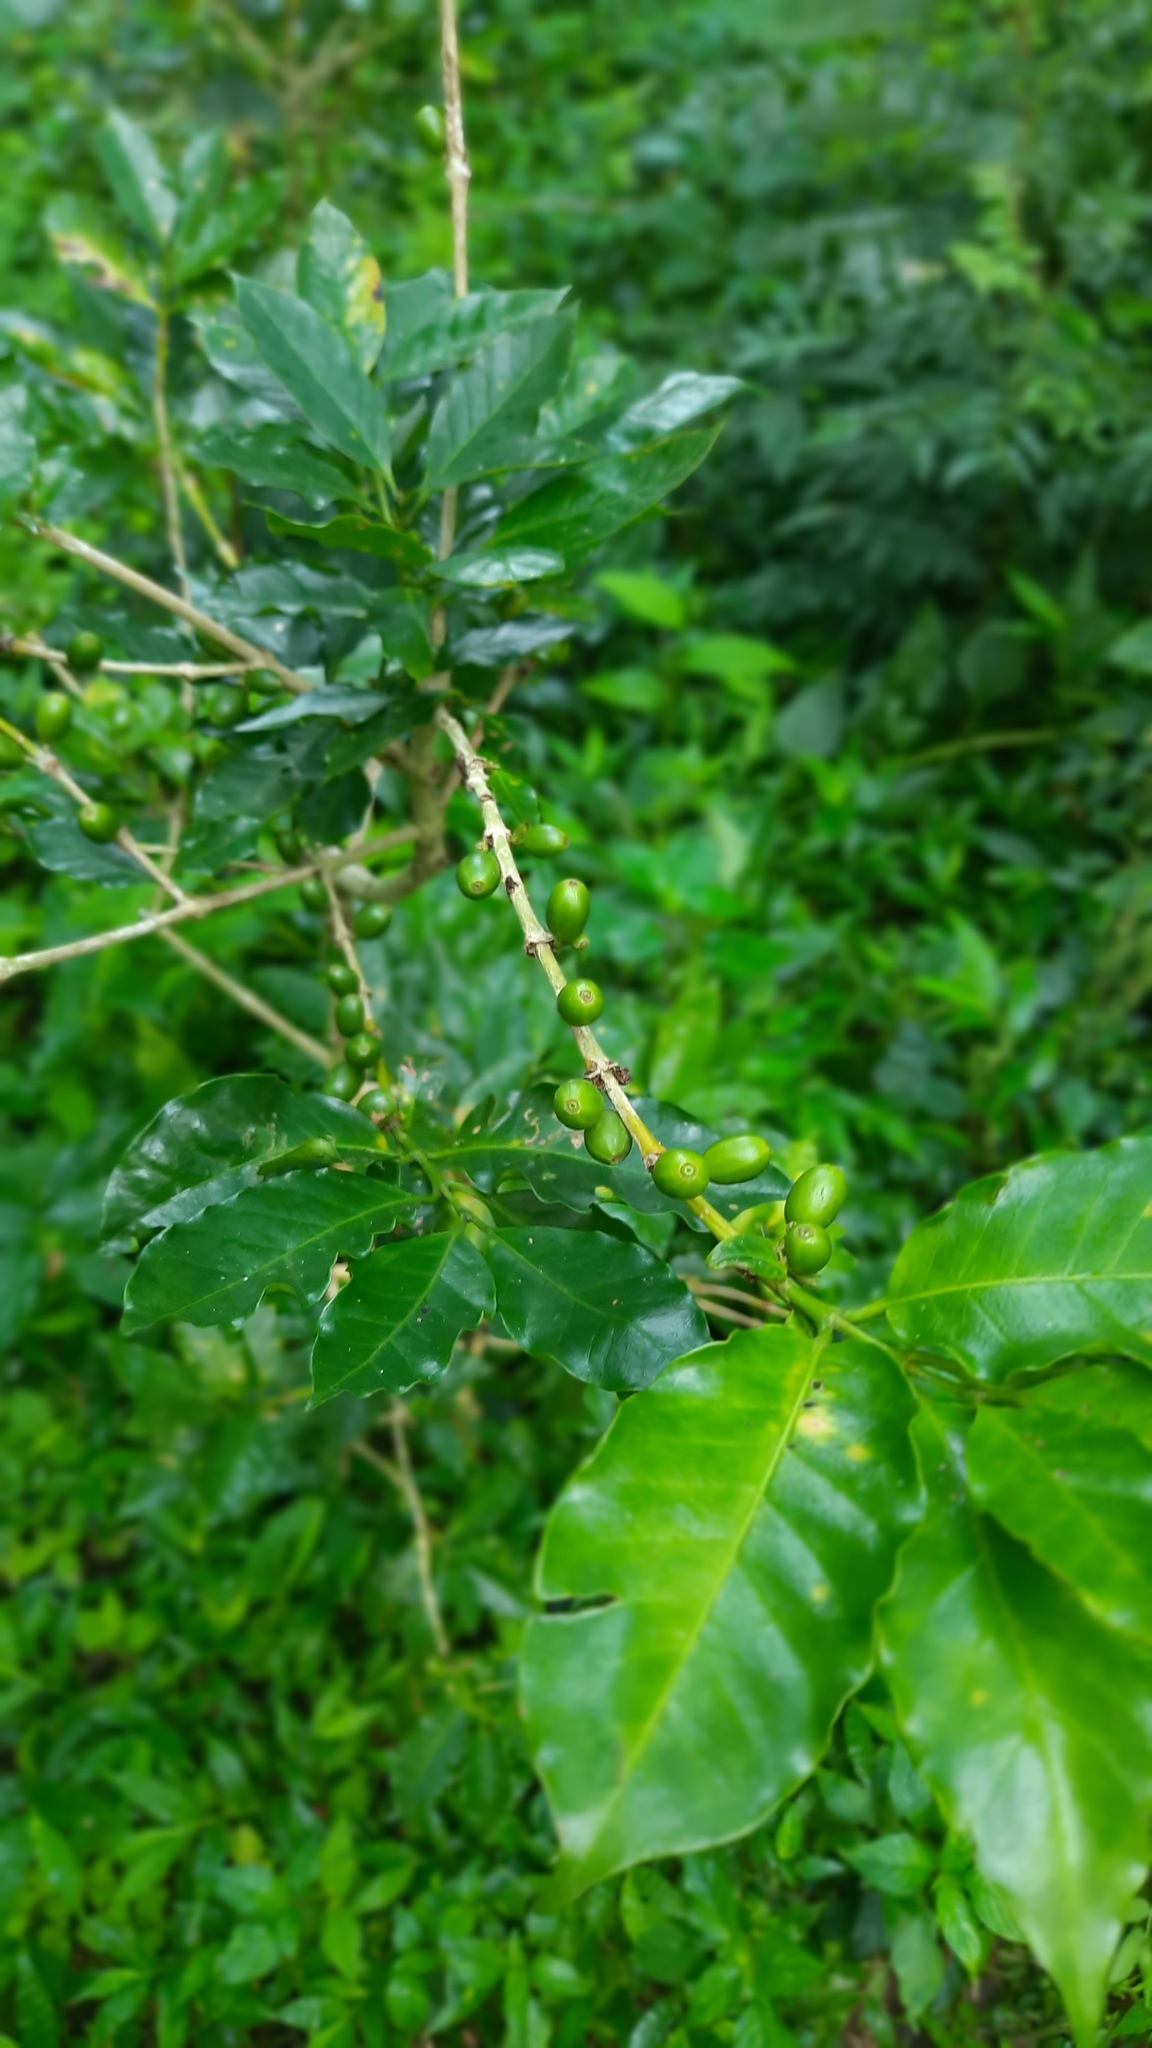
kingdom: Plantae
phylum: Tracheophyta
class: Magnoliopsida
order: Gentianales
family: Rubiaceae
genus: Coffea
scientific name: Coffea arabica
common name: Coffee
